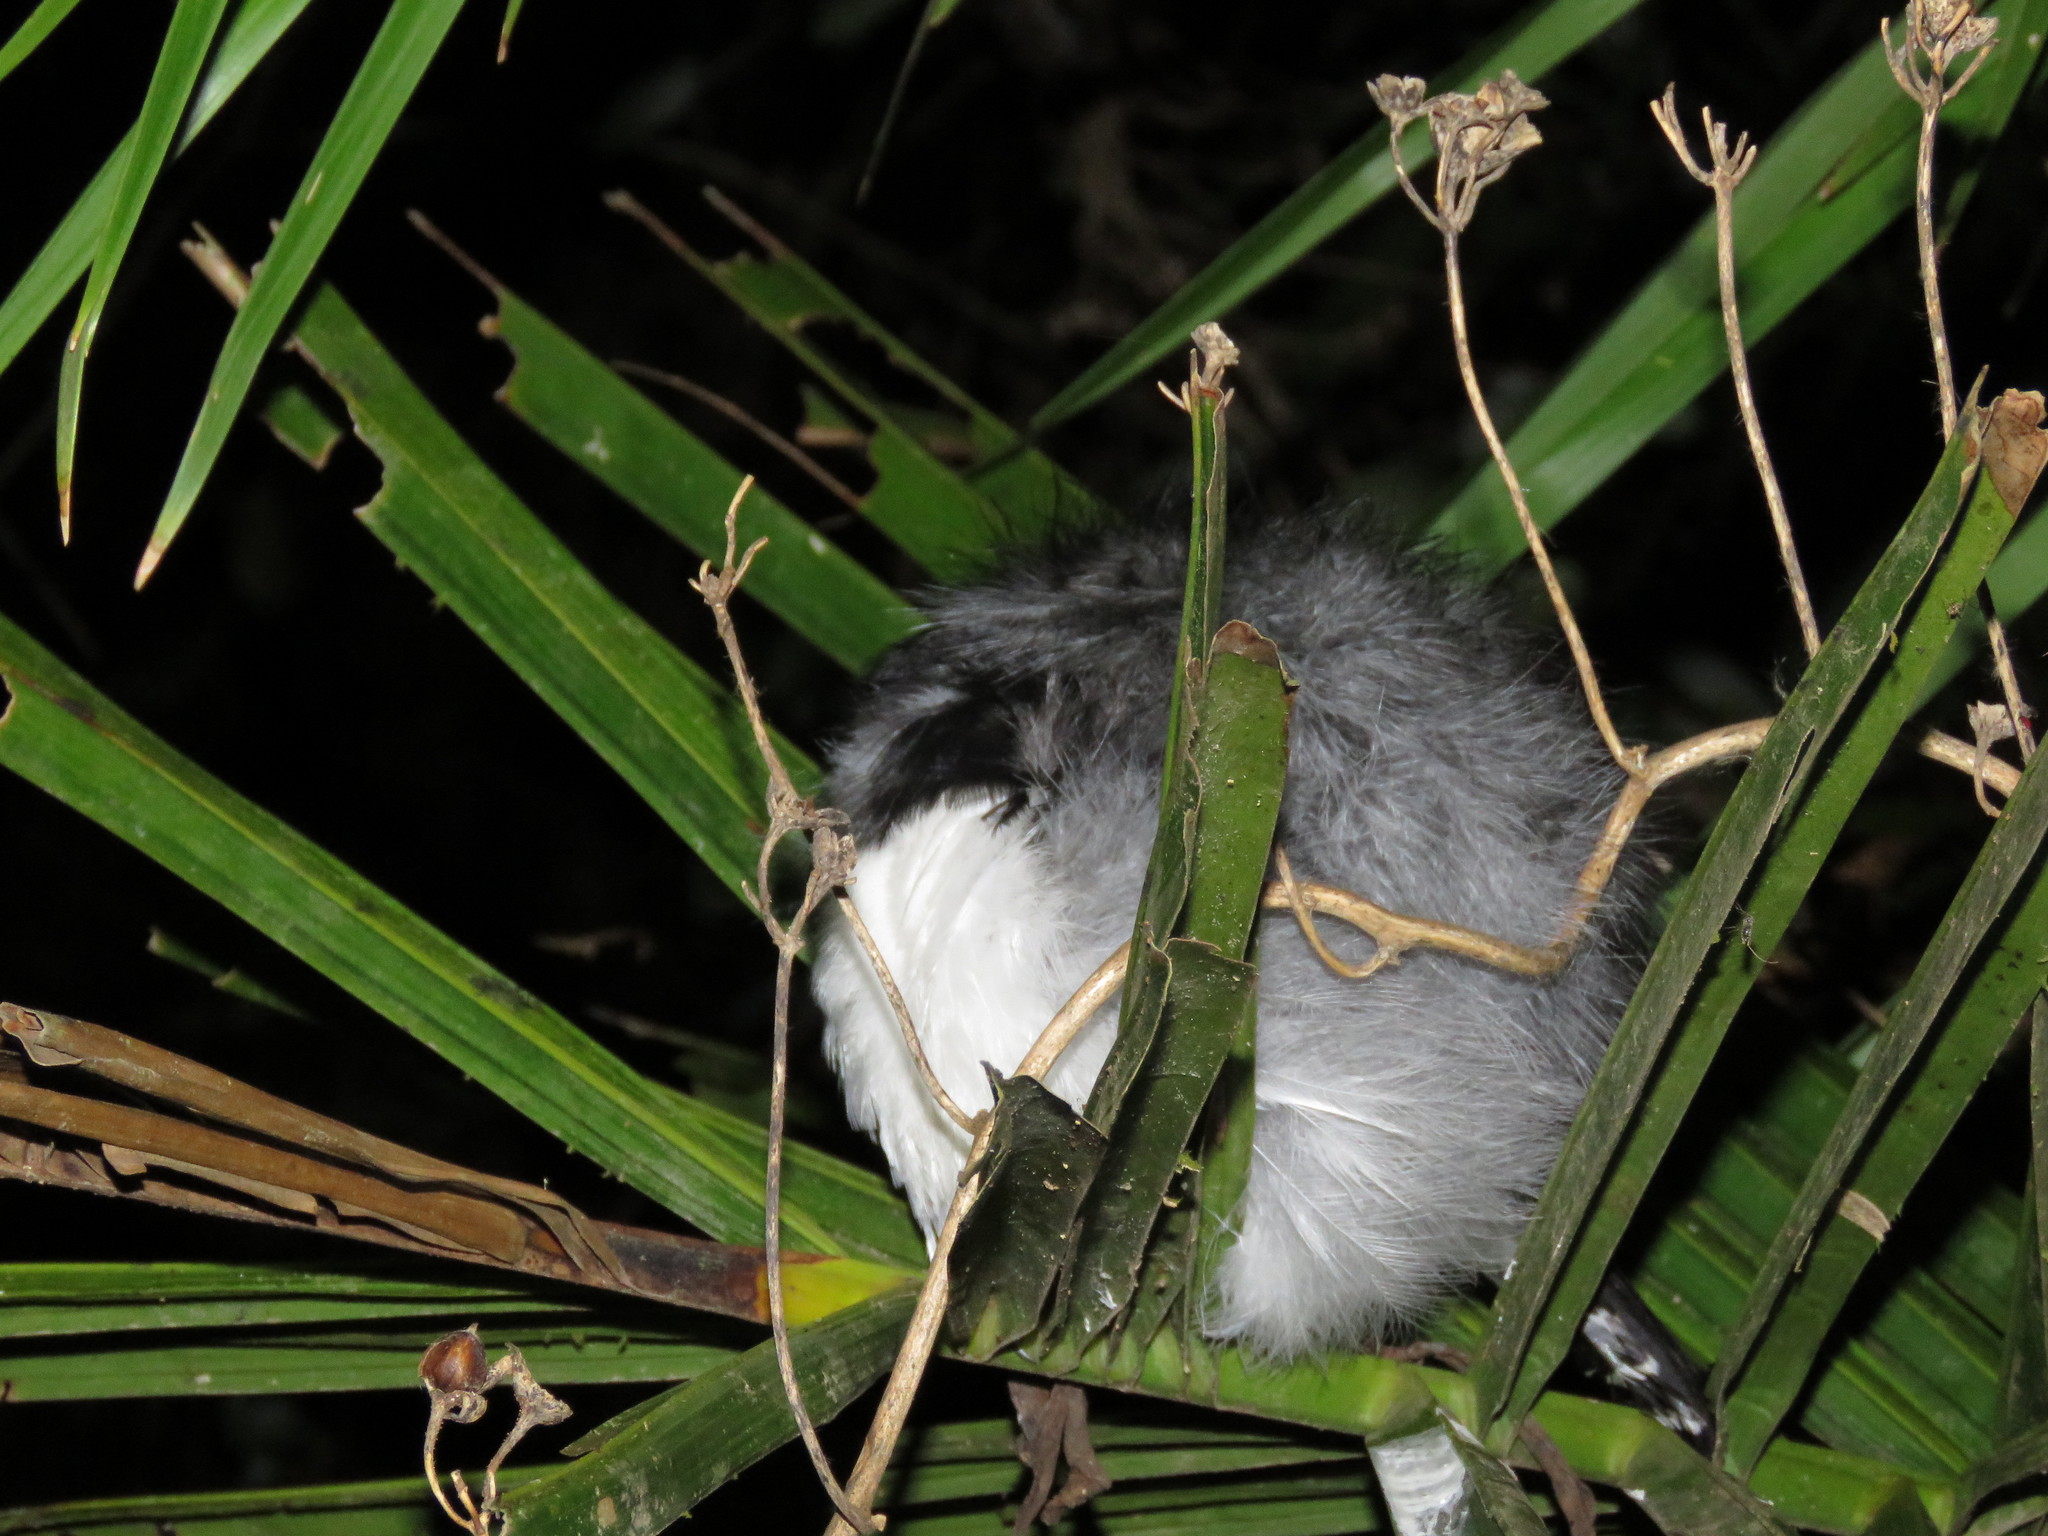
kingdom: Animalia
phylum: Chordata
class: Aves
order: Passeriformes
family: Thamnophilidae
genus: Taraba
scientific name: Taraba major
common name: Great antshrike
